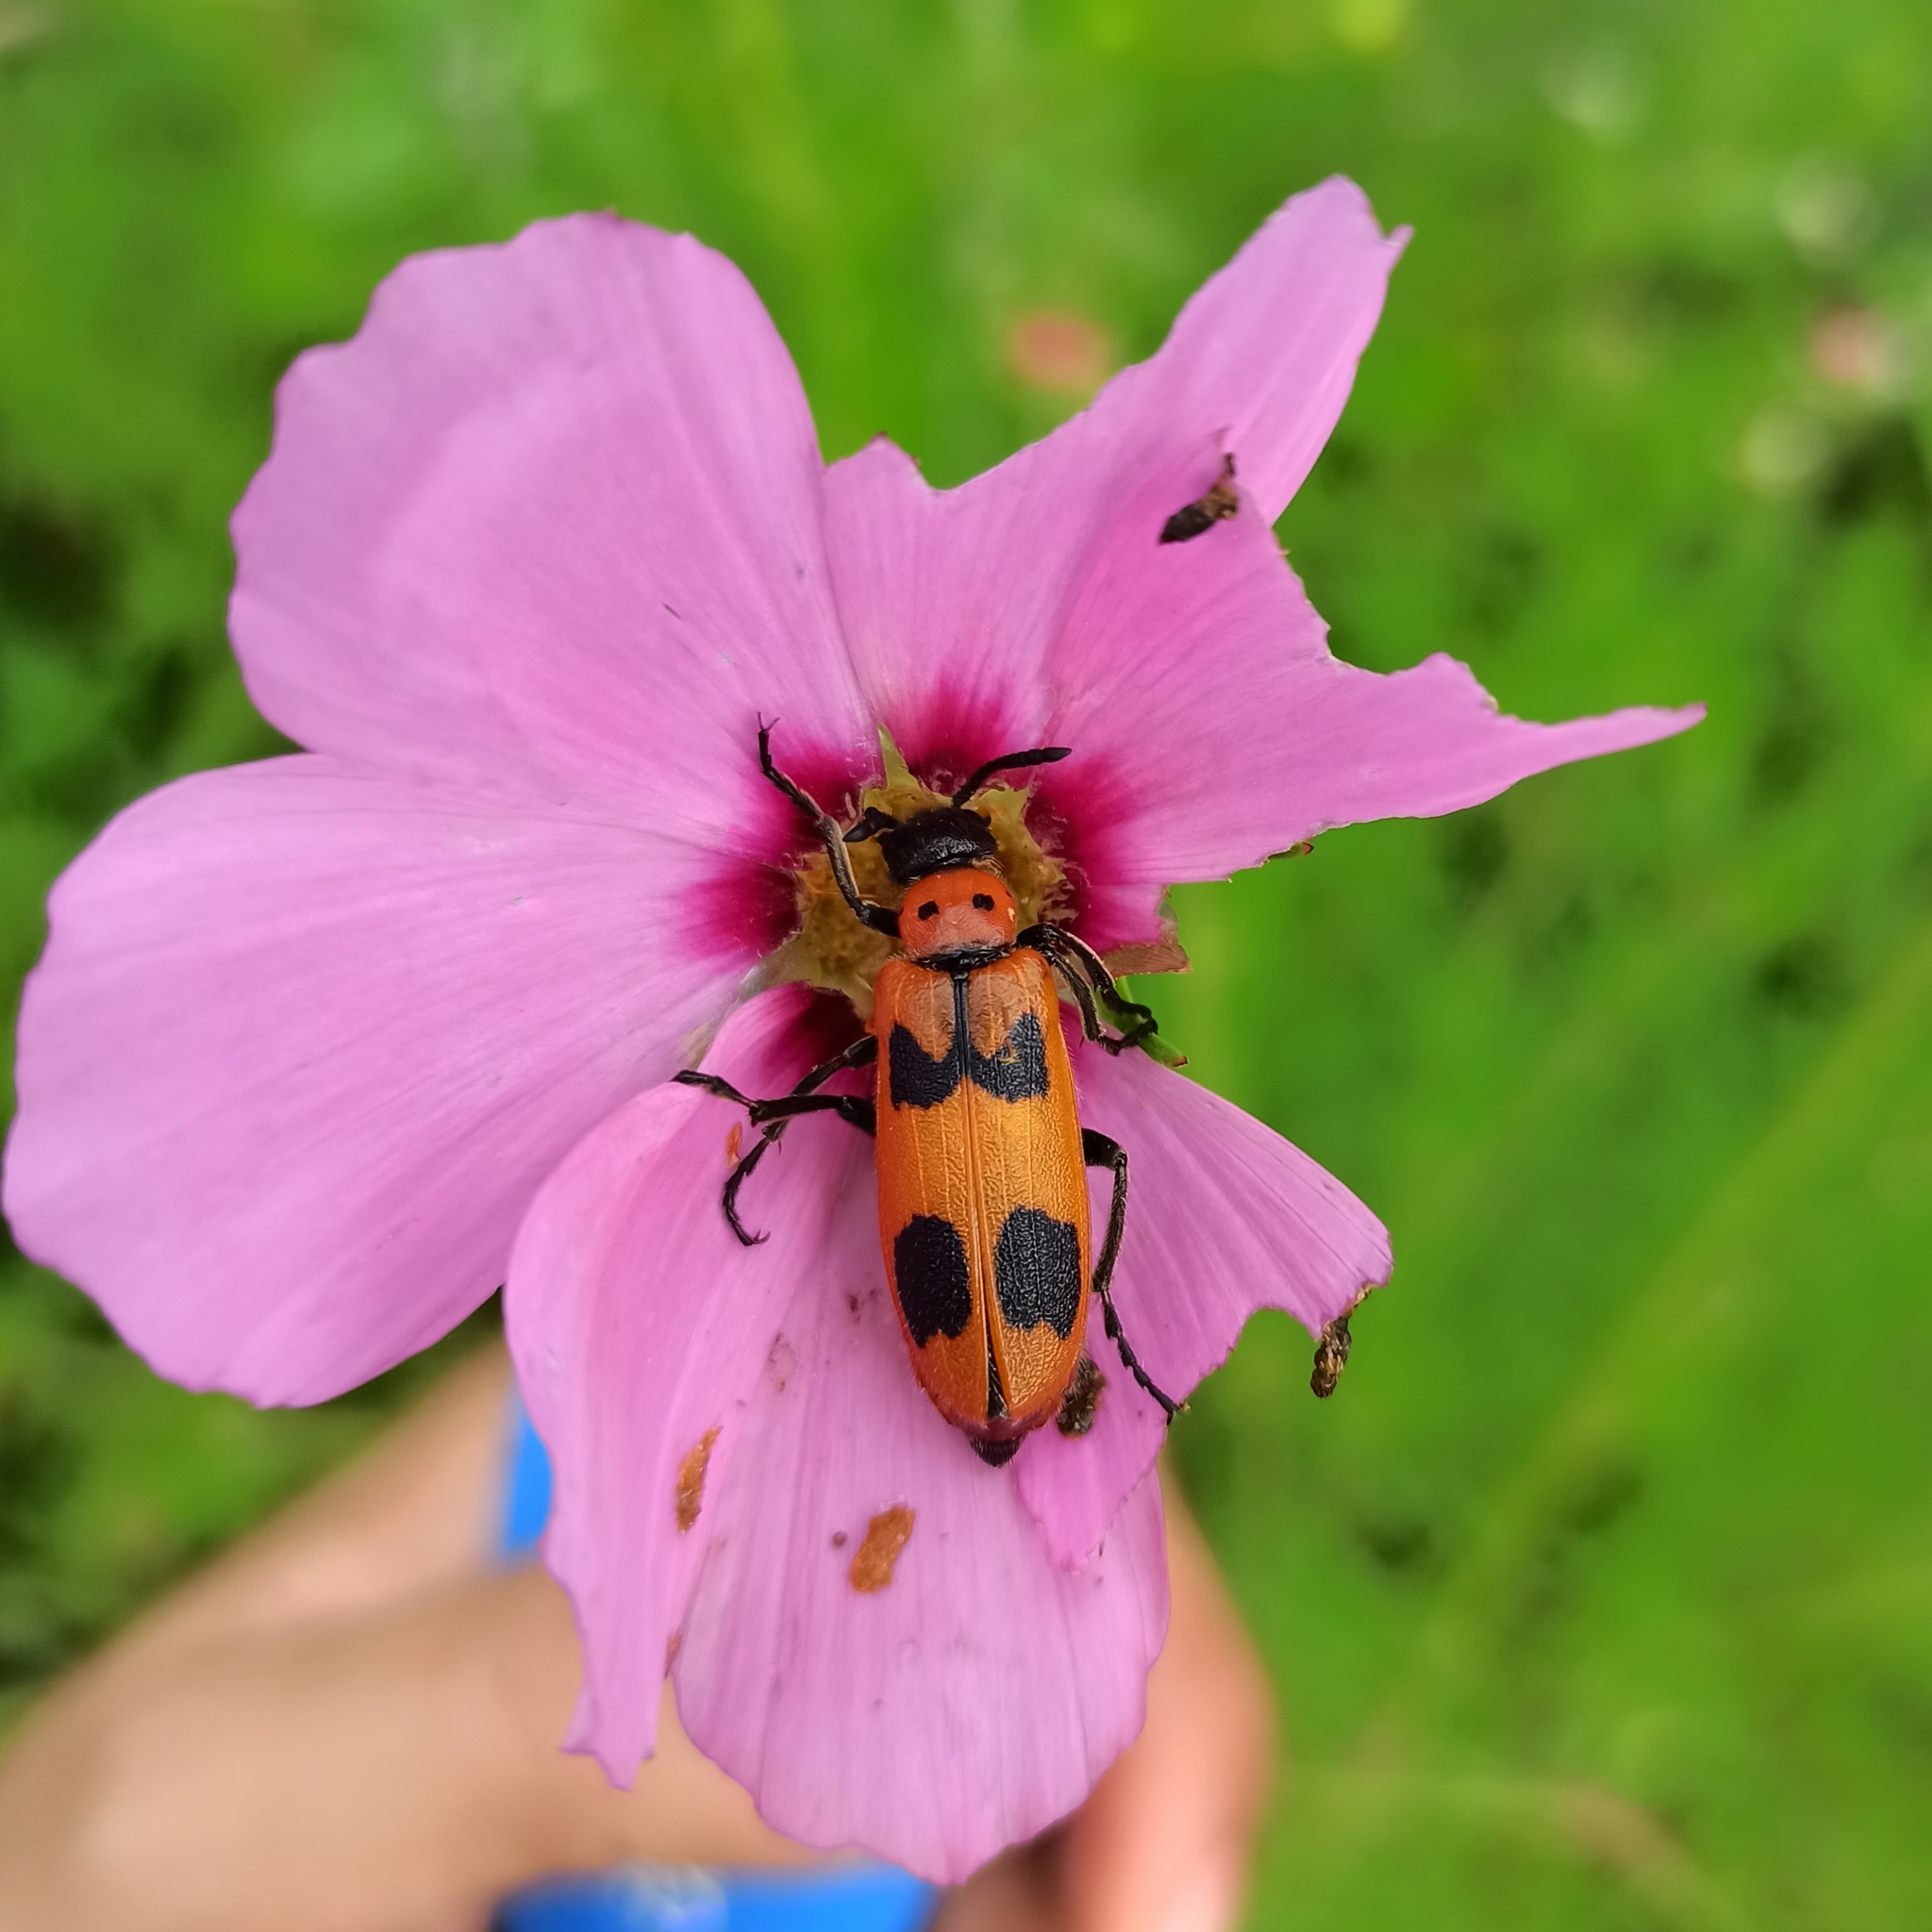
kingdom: Animalia
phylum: Arthropoda
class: Insecta
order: Coleoptera
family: Meloidae
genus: Lytta
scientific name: Lytta quadrimaculata
